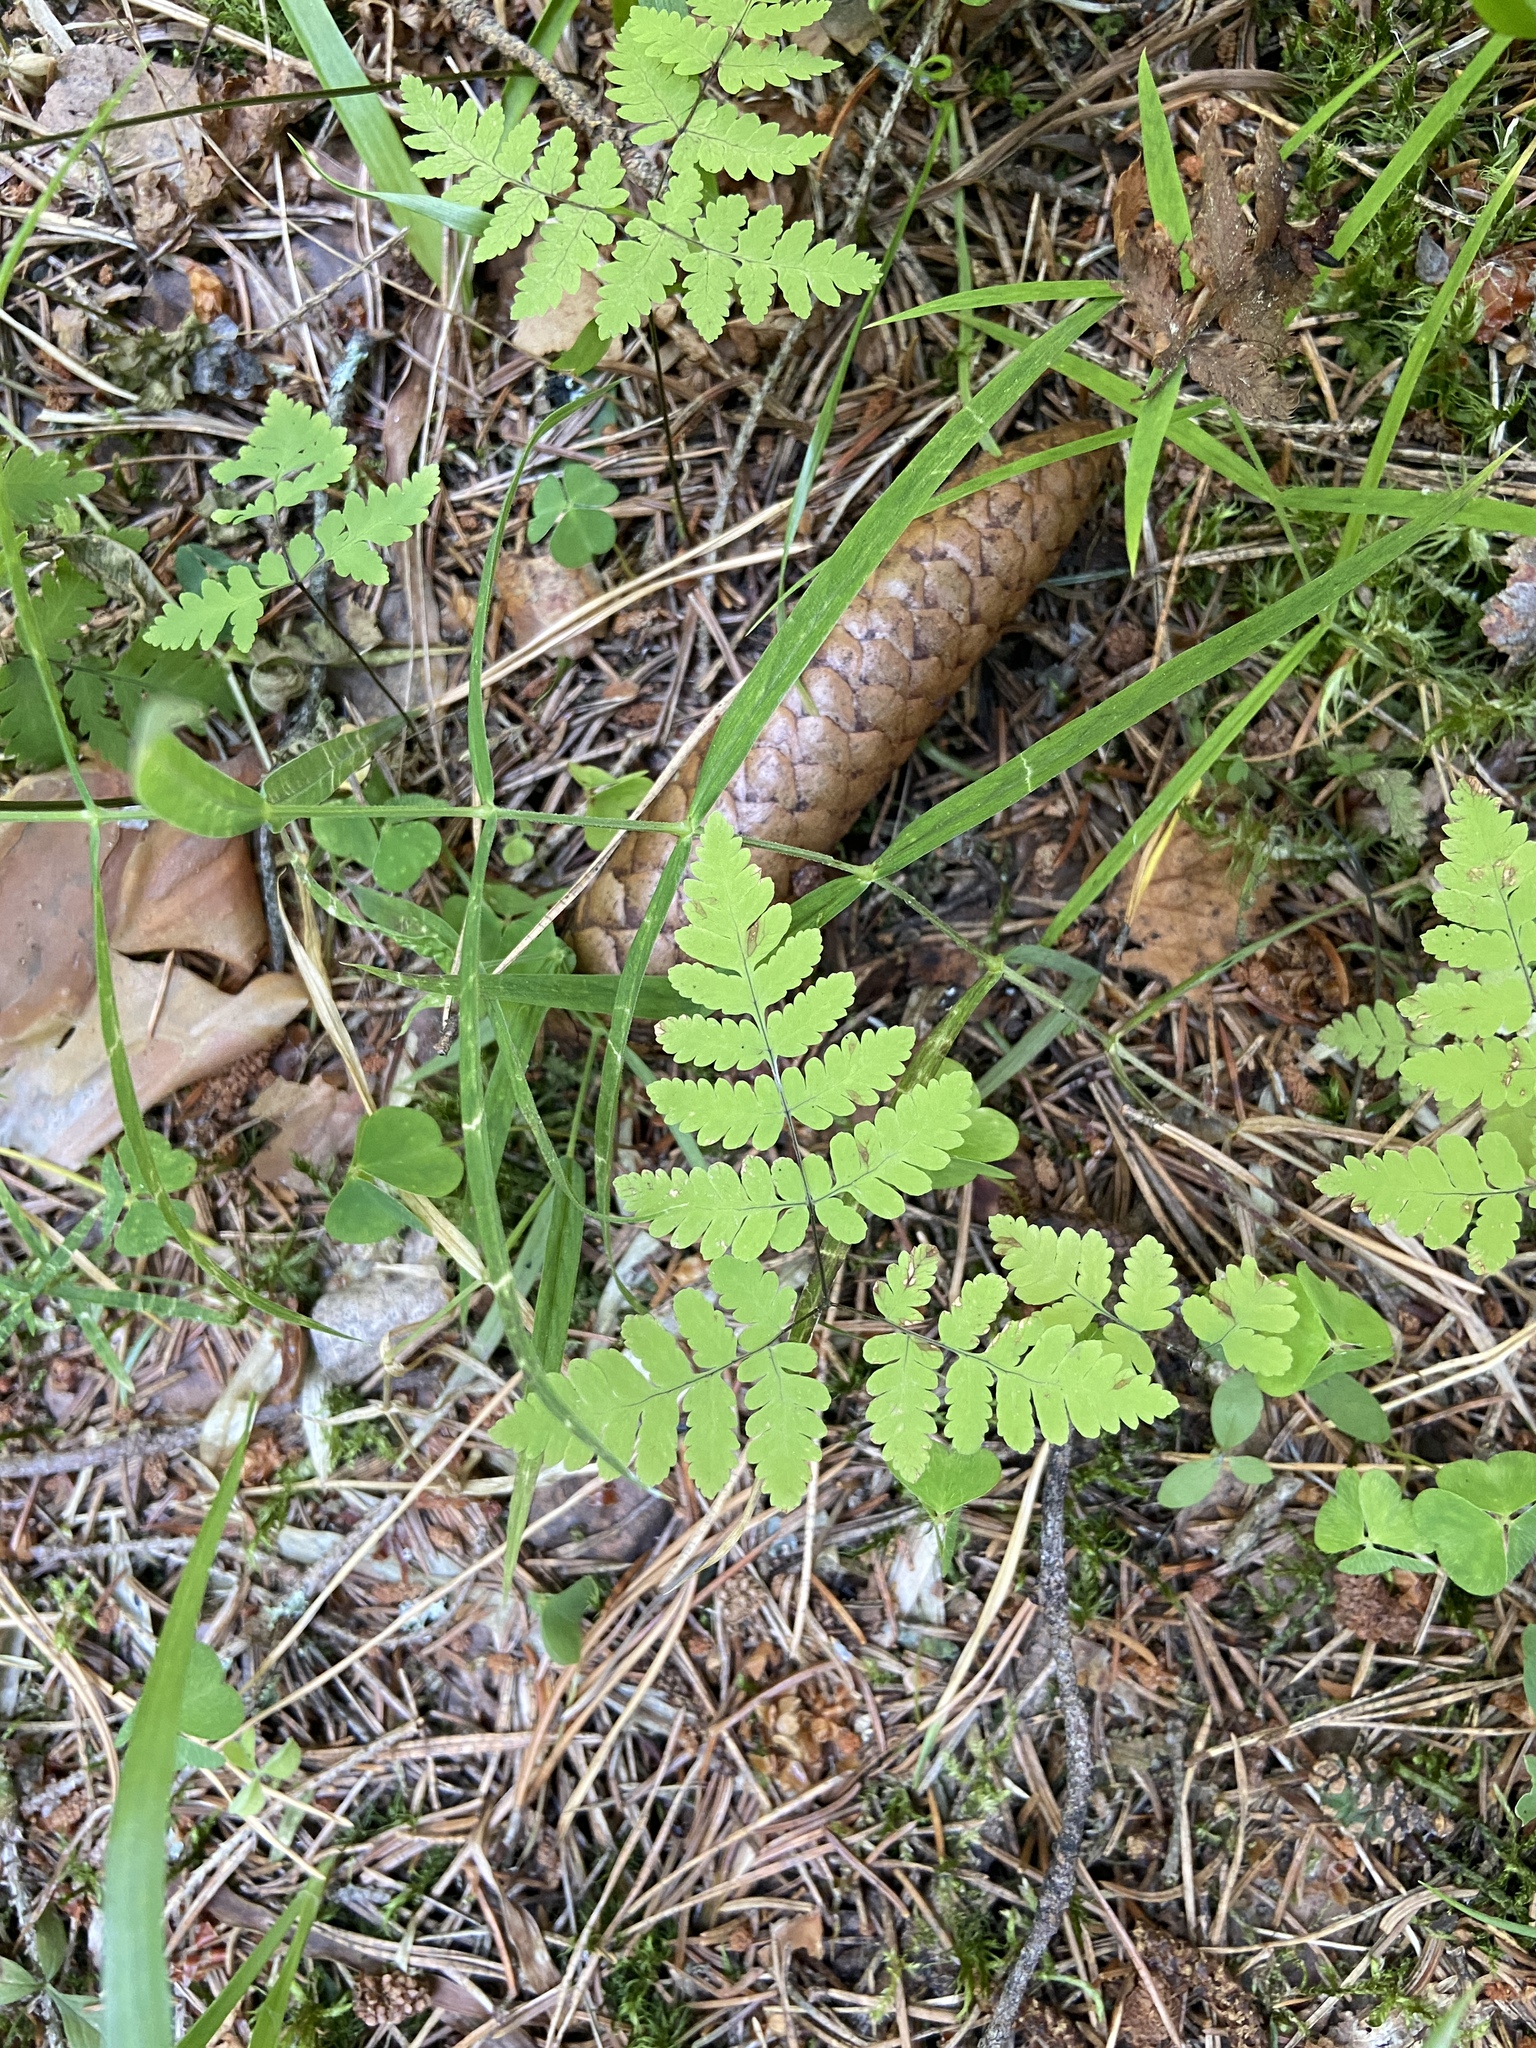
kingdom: Plantae
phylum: Tracheophyta
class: Polypodiopsida
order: Polypodiales
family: Cystopteridaceae
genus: Gymnocarpium
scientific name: Gymnocarpium dryopteris
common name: Oak fern
